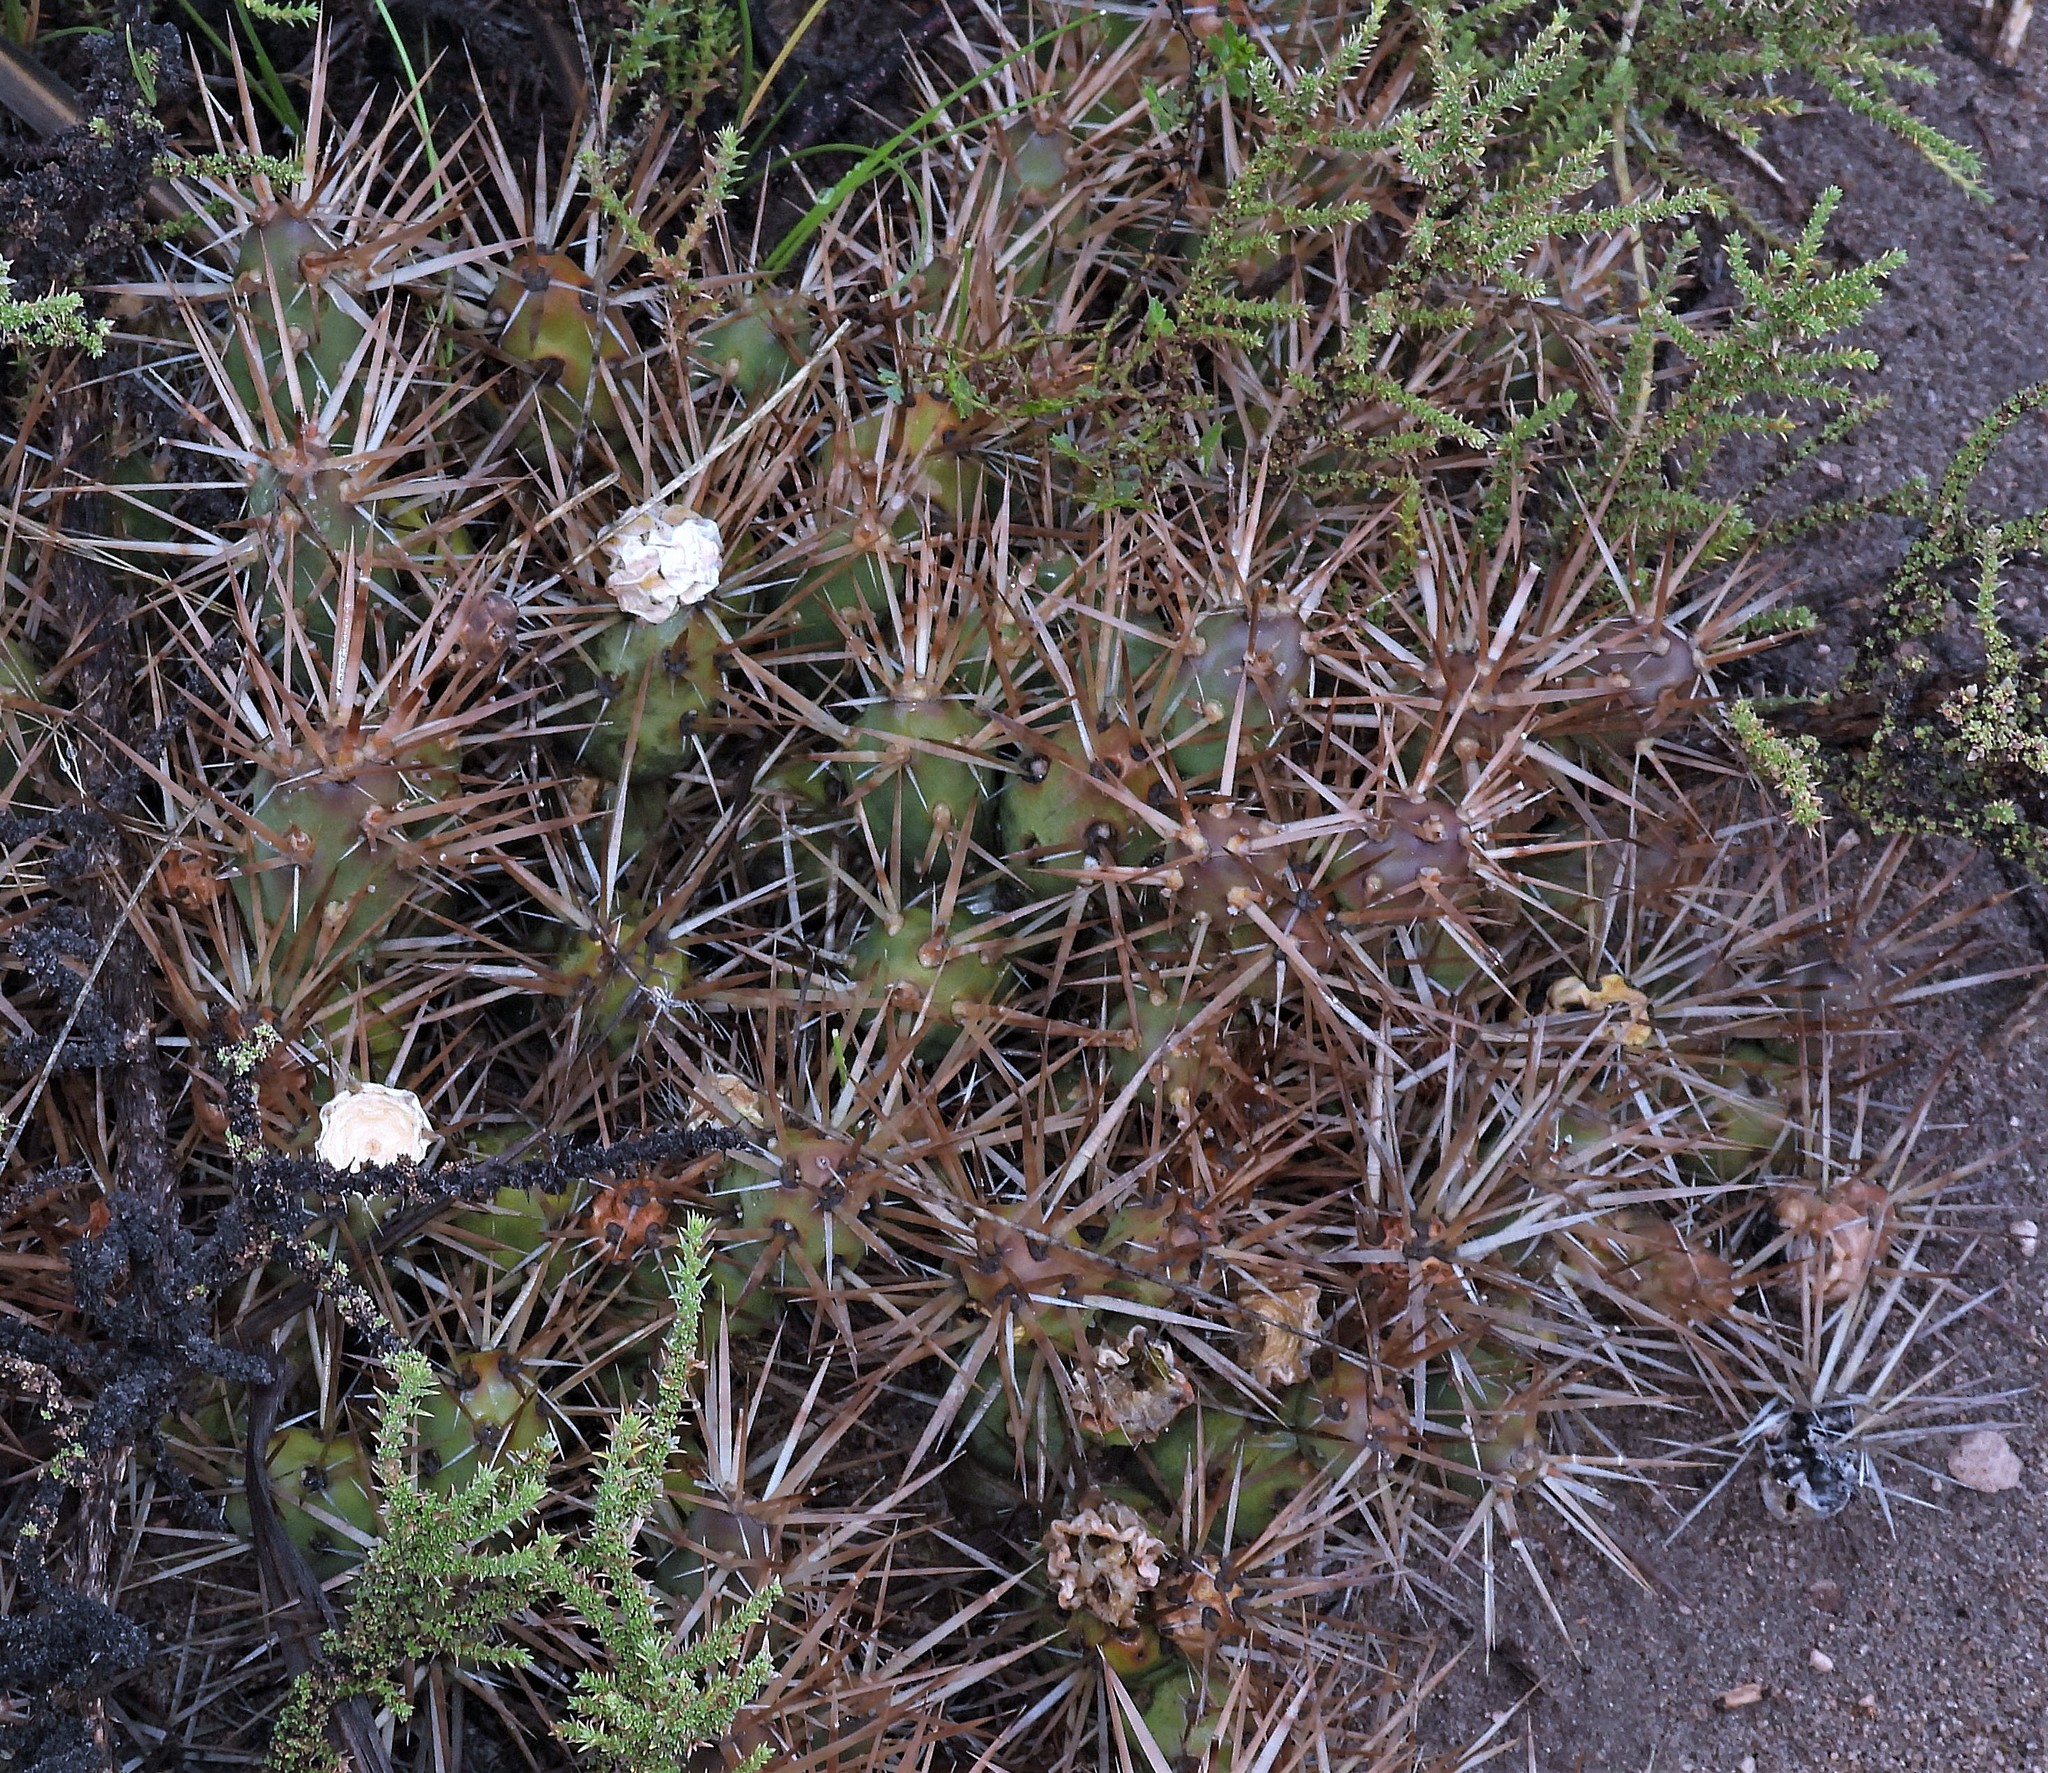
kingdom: Plantae
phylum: Tracheophyta
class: Magnoliopsida
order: Caryophyllales
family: Cactaceae
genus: Maihueniopsis
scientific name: Maihueniopsis darwinii
